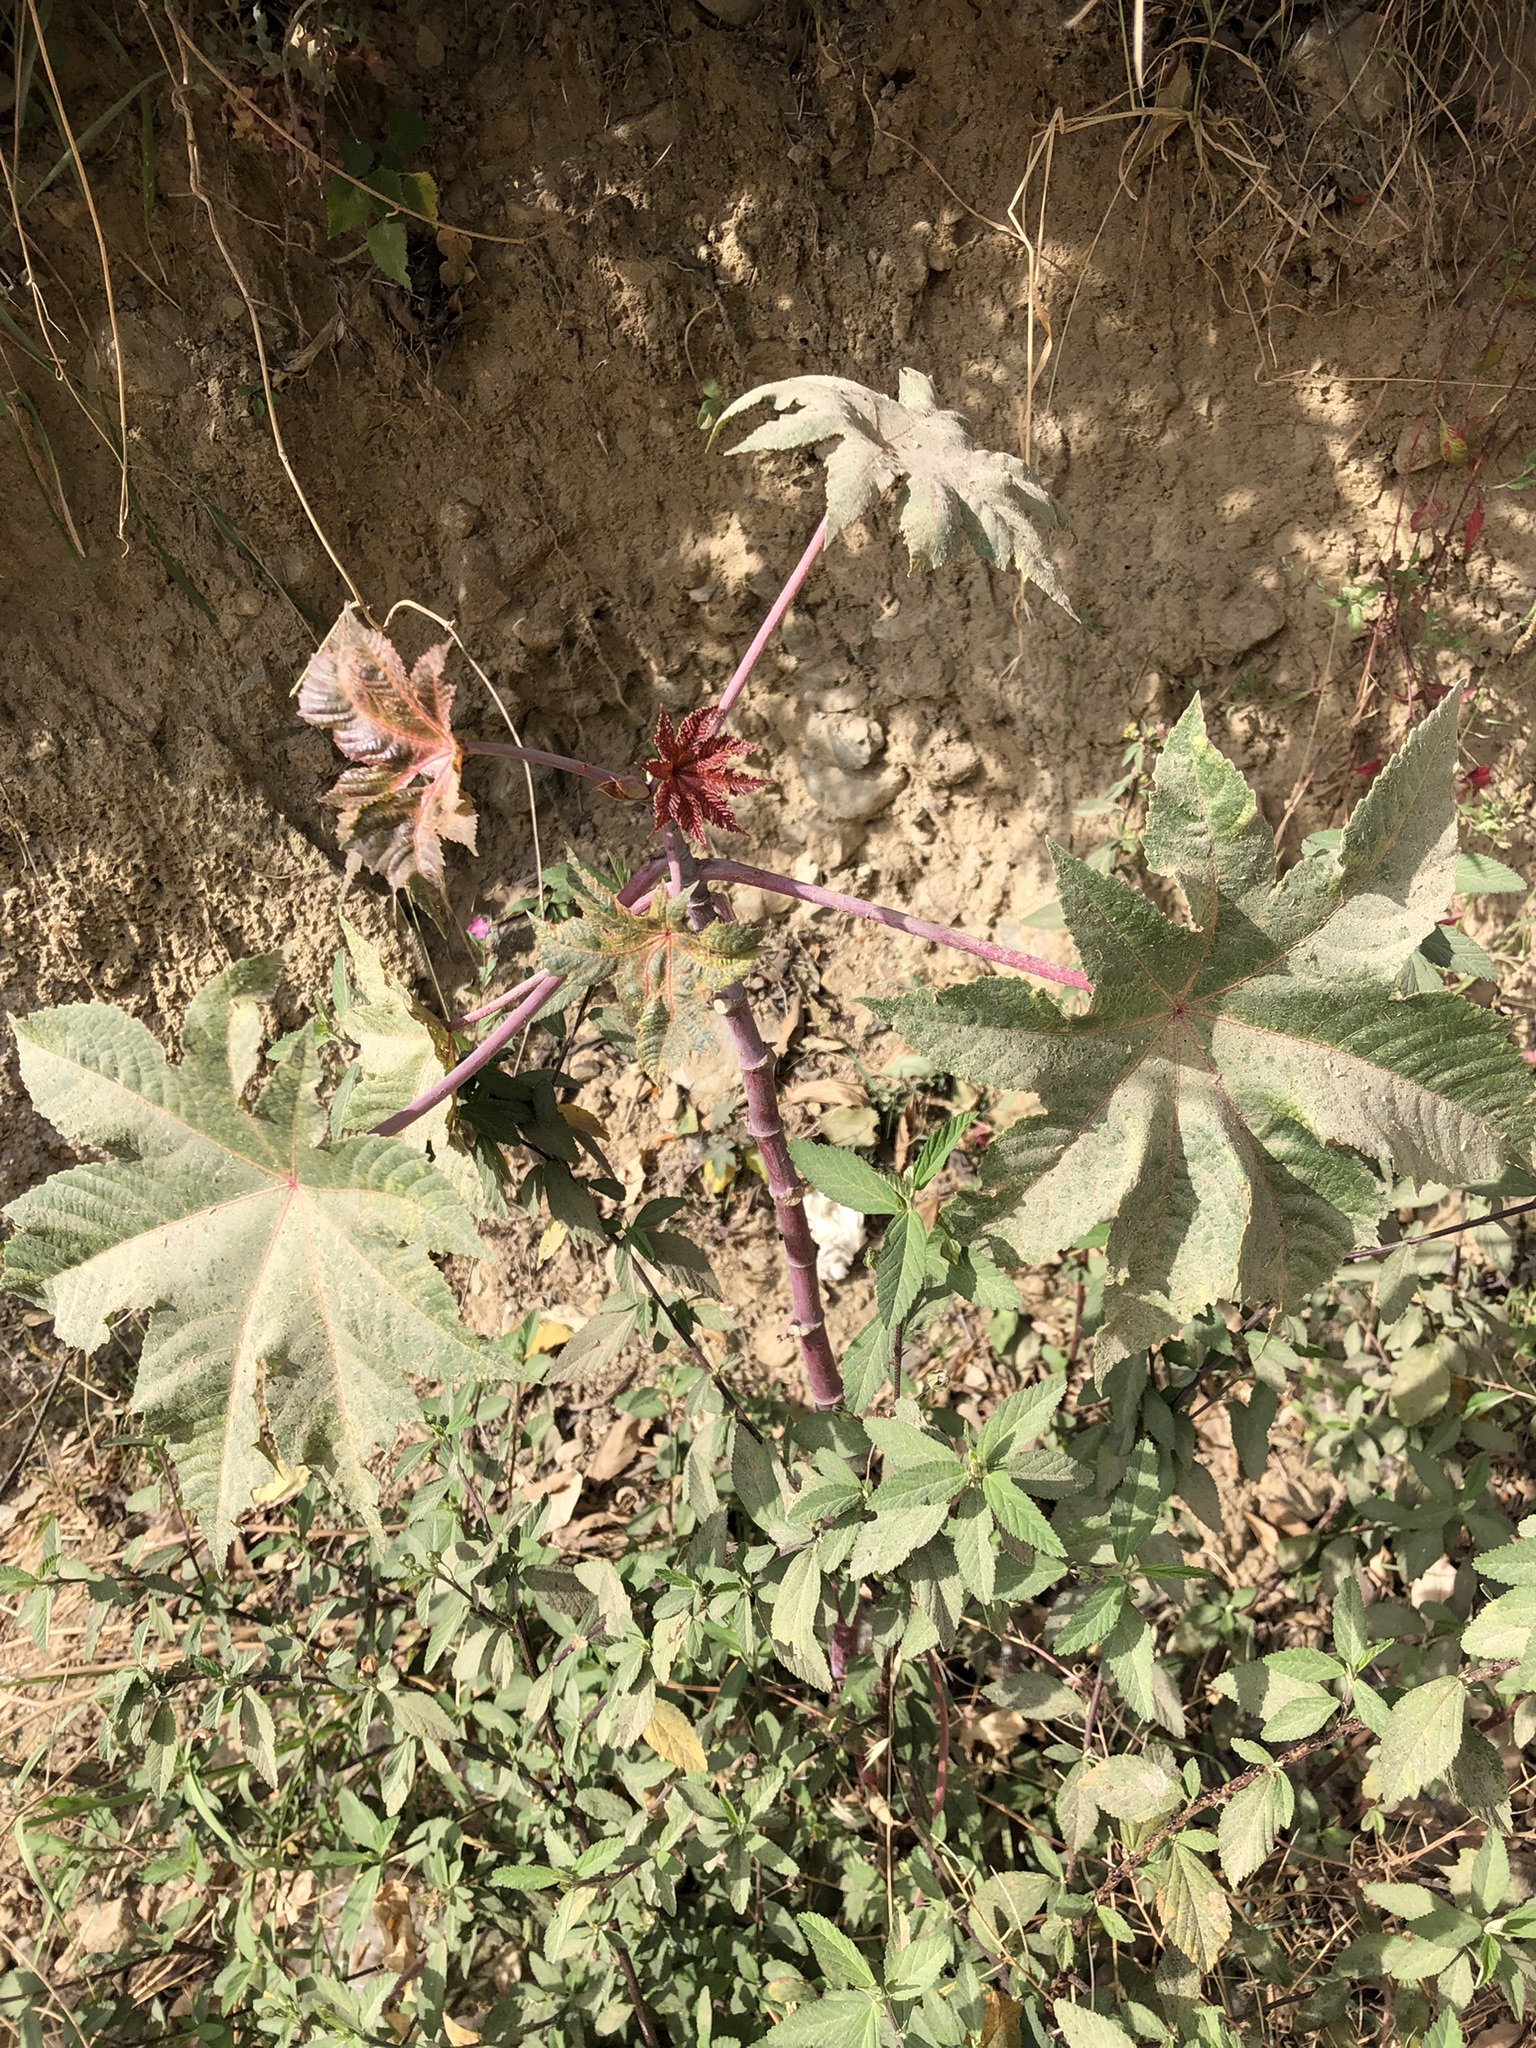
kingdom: Plantae
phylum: Tracheophyta
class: Magnoliopsida
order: Malpighiales
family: Euphorbiaceae
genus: Ricinus
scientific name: Ricinus communis
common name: Castor-oil-plant
